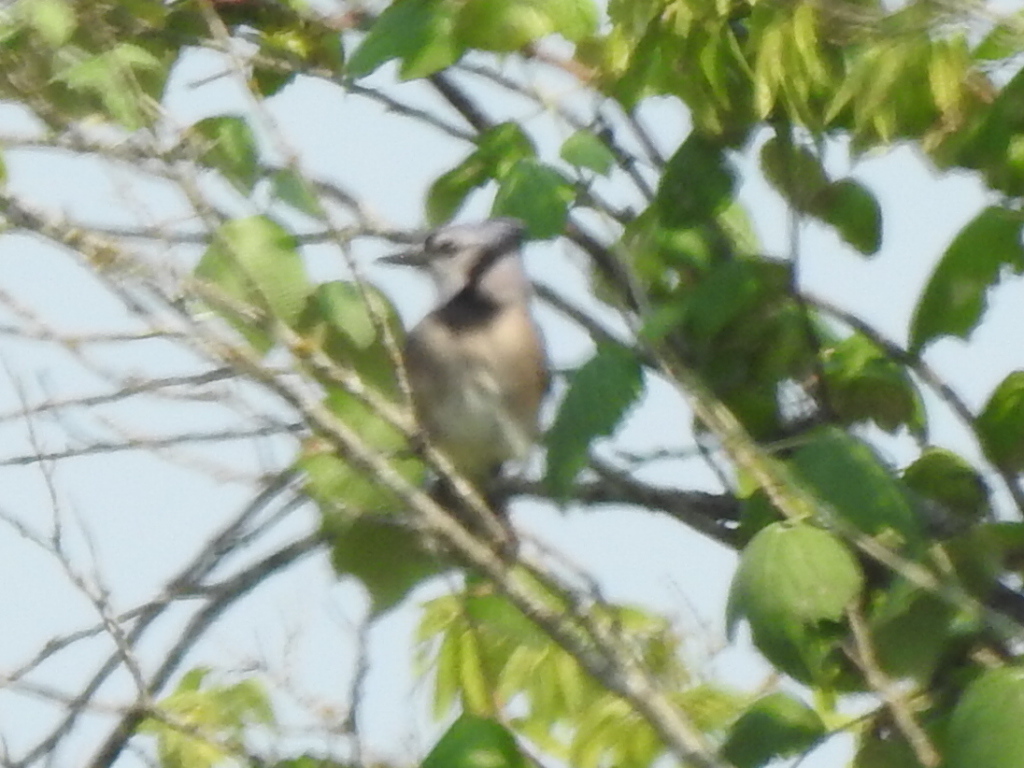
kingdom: Animalia
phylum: Chordata
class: Aves
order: Passeriformes
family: Corvidae
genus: Cyanocitta
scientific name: Cyanocitta cristata
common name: Blue jay
